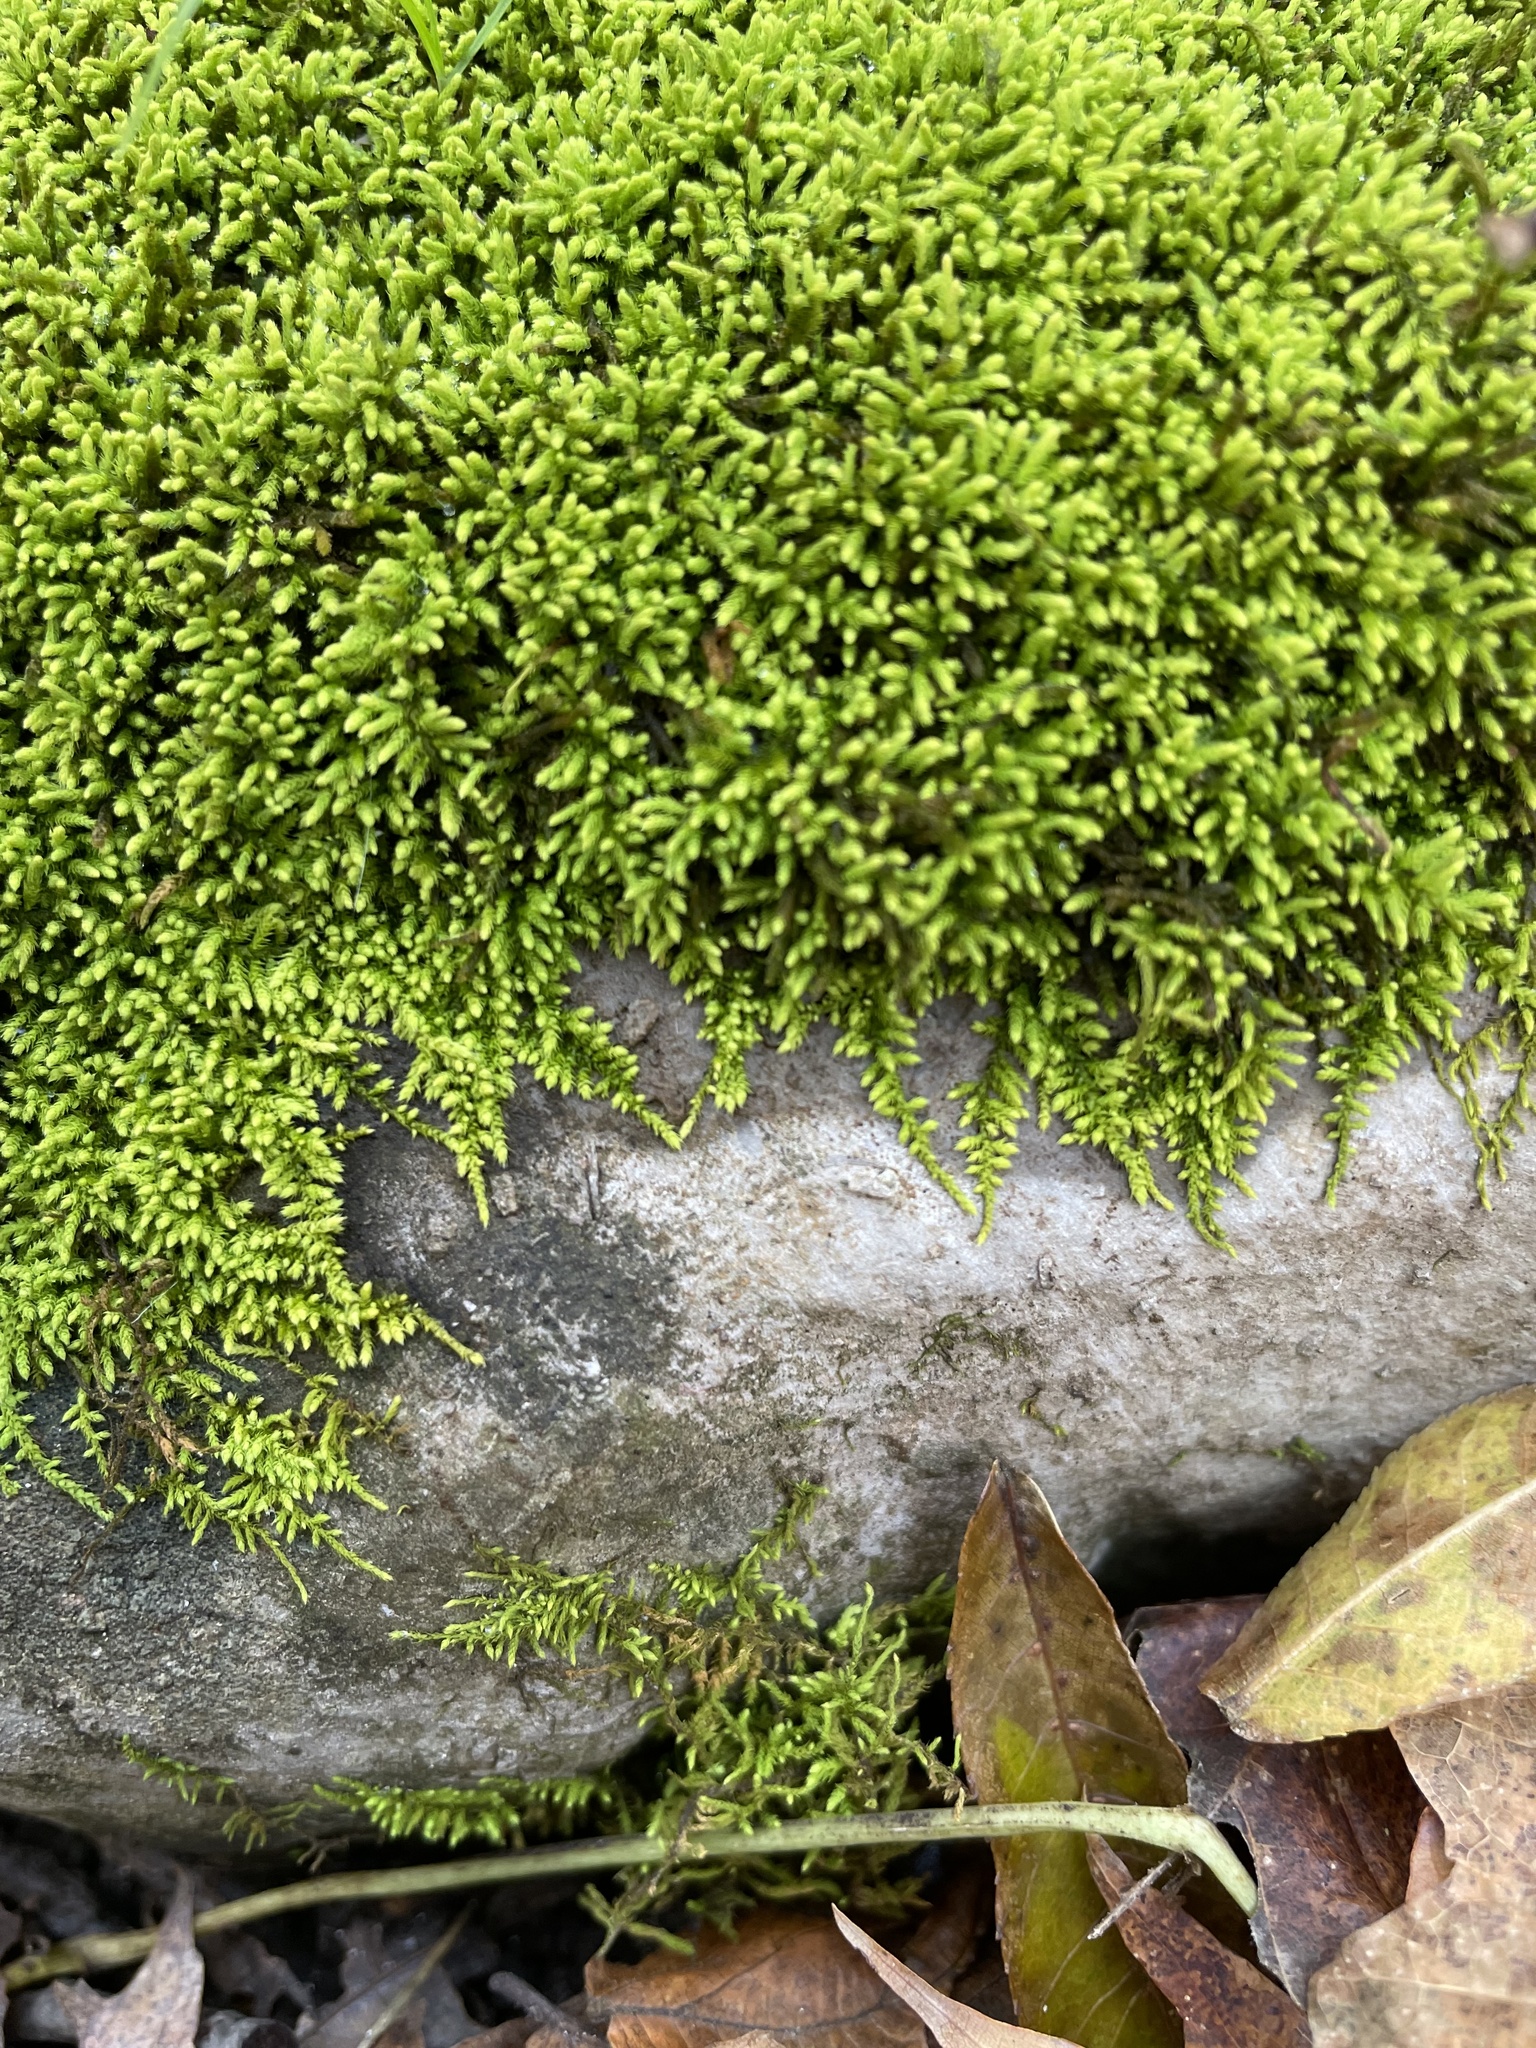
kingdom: Plantae
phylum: Bryophyta
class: Bryopsida
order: Hypnales
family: Brachytheciaceae
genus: Claopodium
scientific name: Claopodium rostratum
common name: Yellow yarn moss
